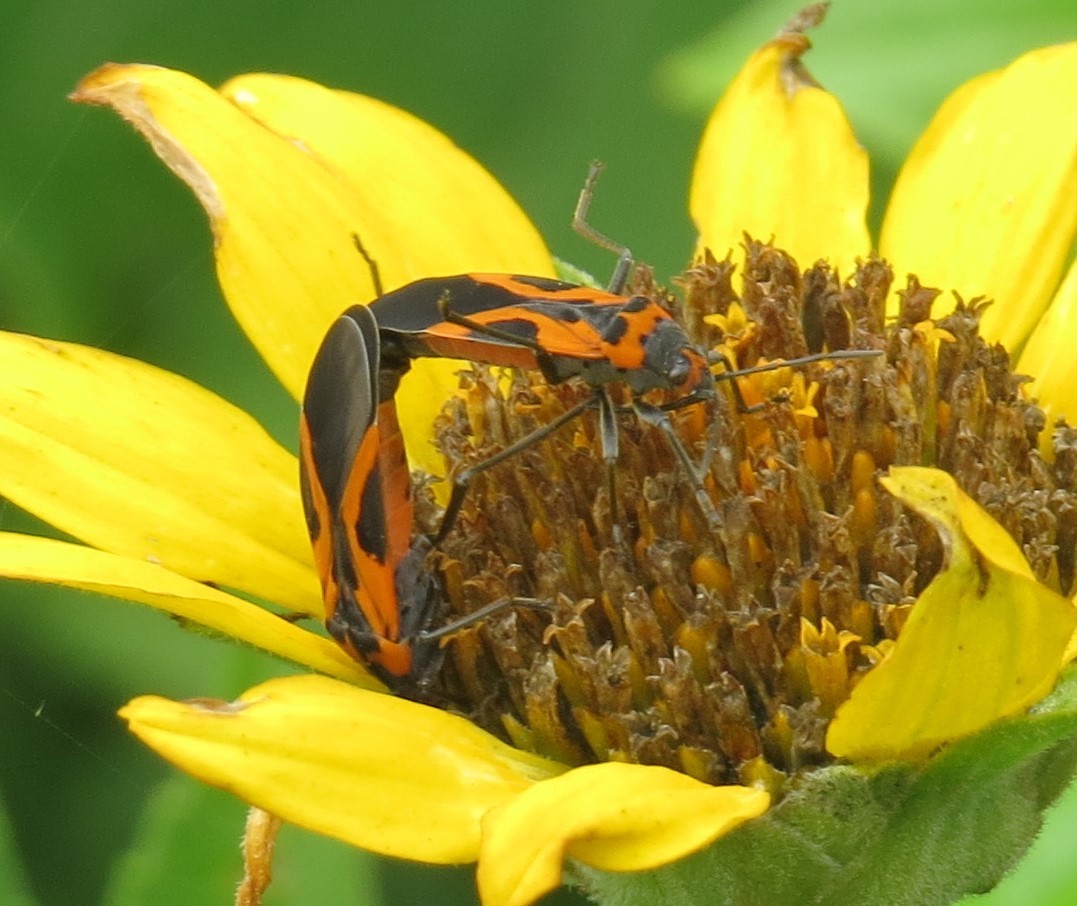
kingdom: Animalia
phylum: Arthropoda
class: Insecta
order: Hemiptera
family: Lygaeidae
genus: Lygaeus
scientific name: Lygaeus turcicus
